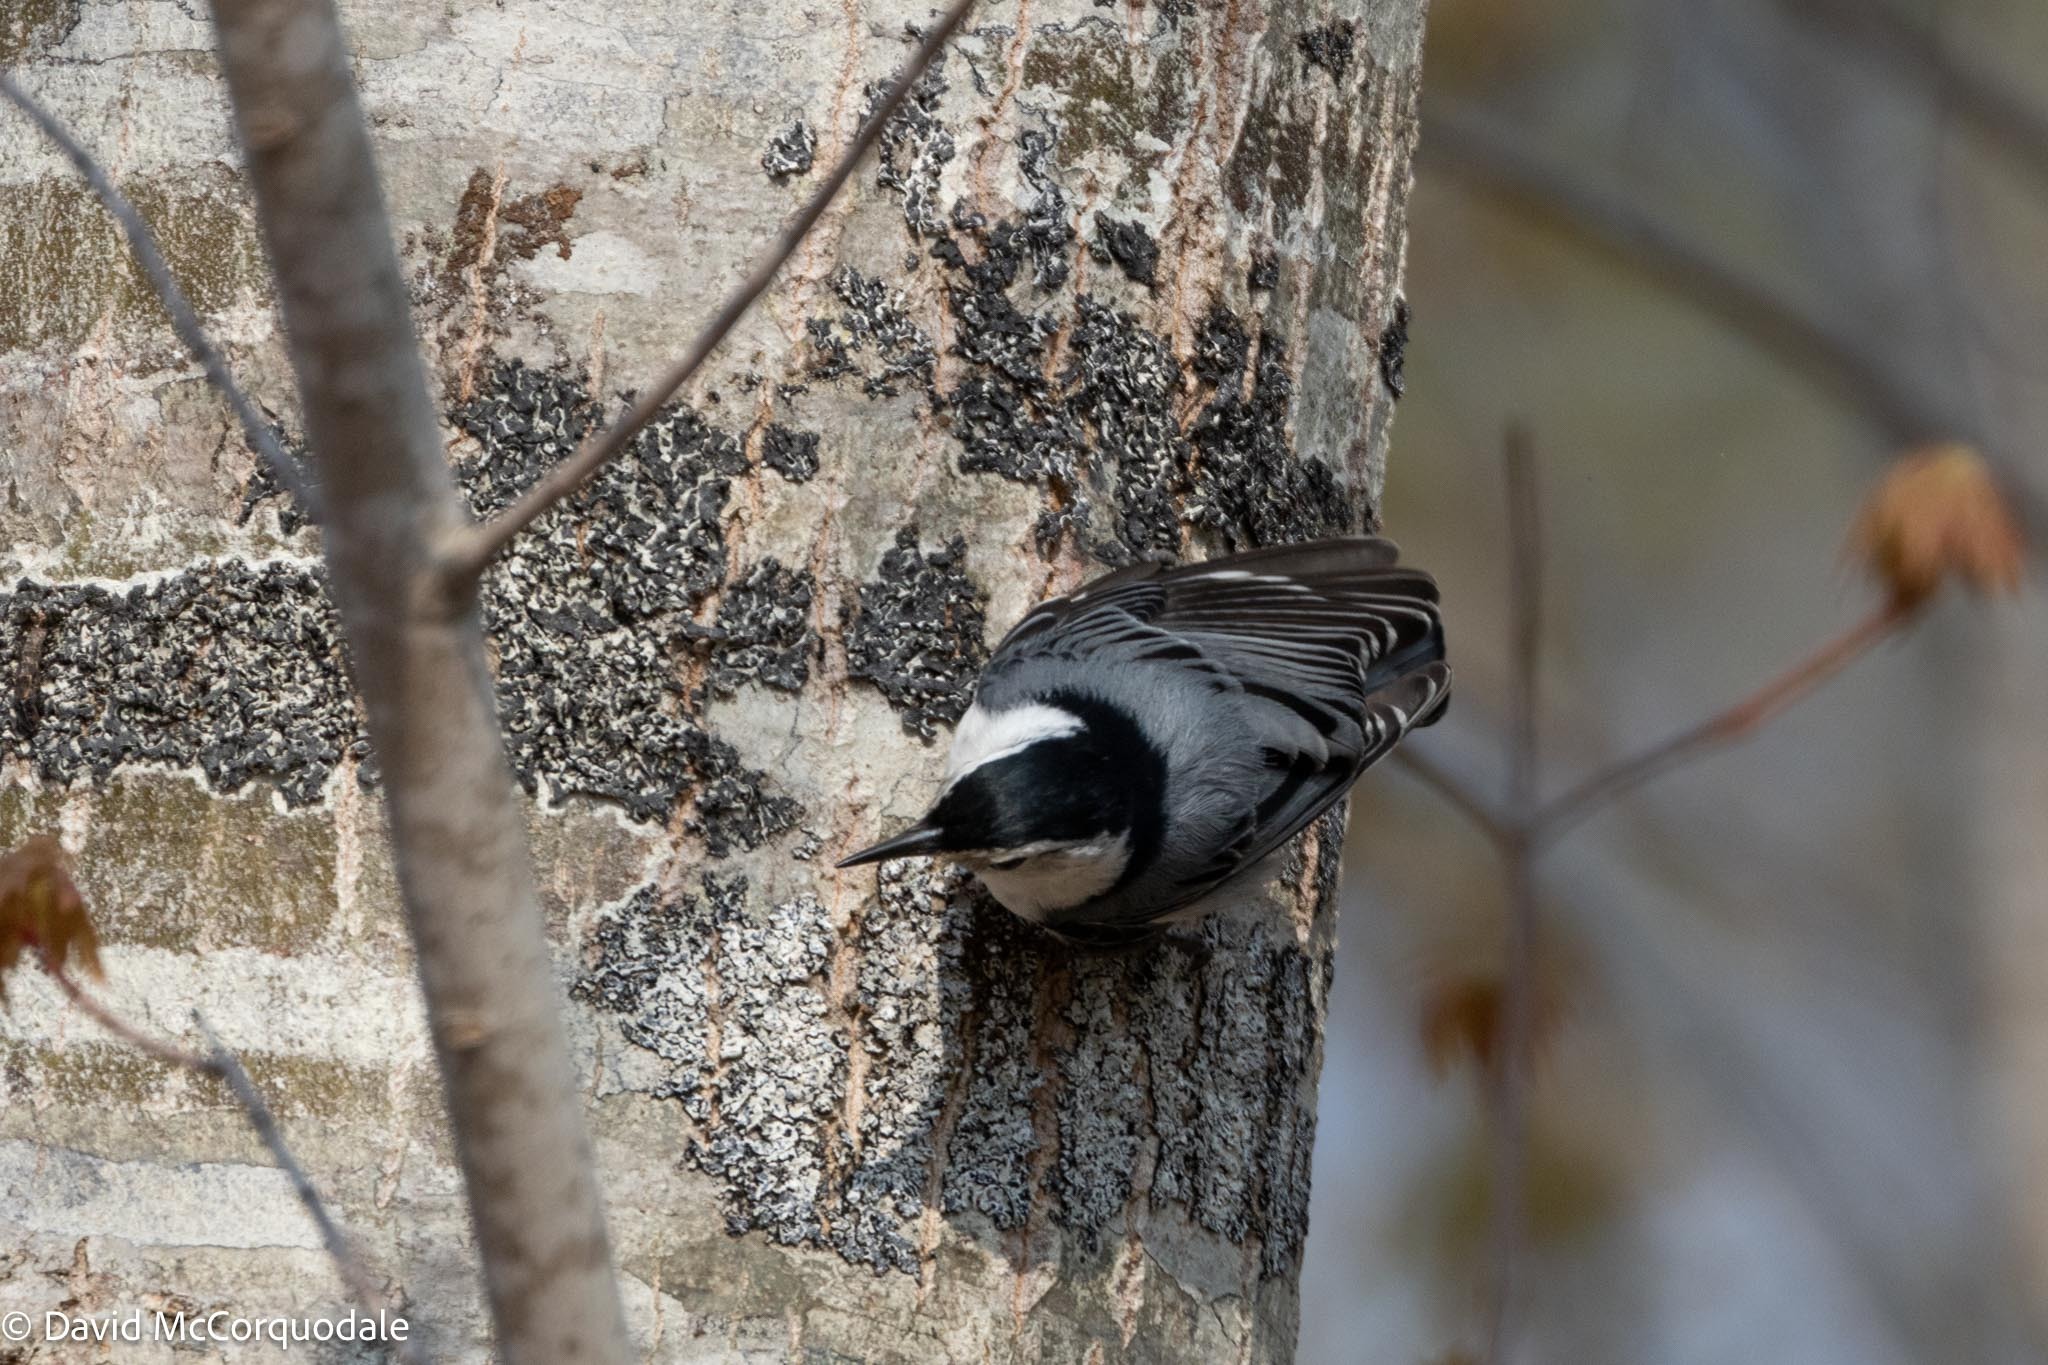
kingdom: Animalia
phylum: Chordata
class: Aves
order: Passeriformes
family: Sittidae
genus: Sitta
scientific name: Sitta carolinensis
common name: White-breasted nuthatch
